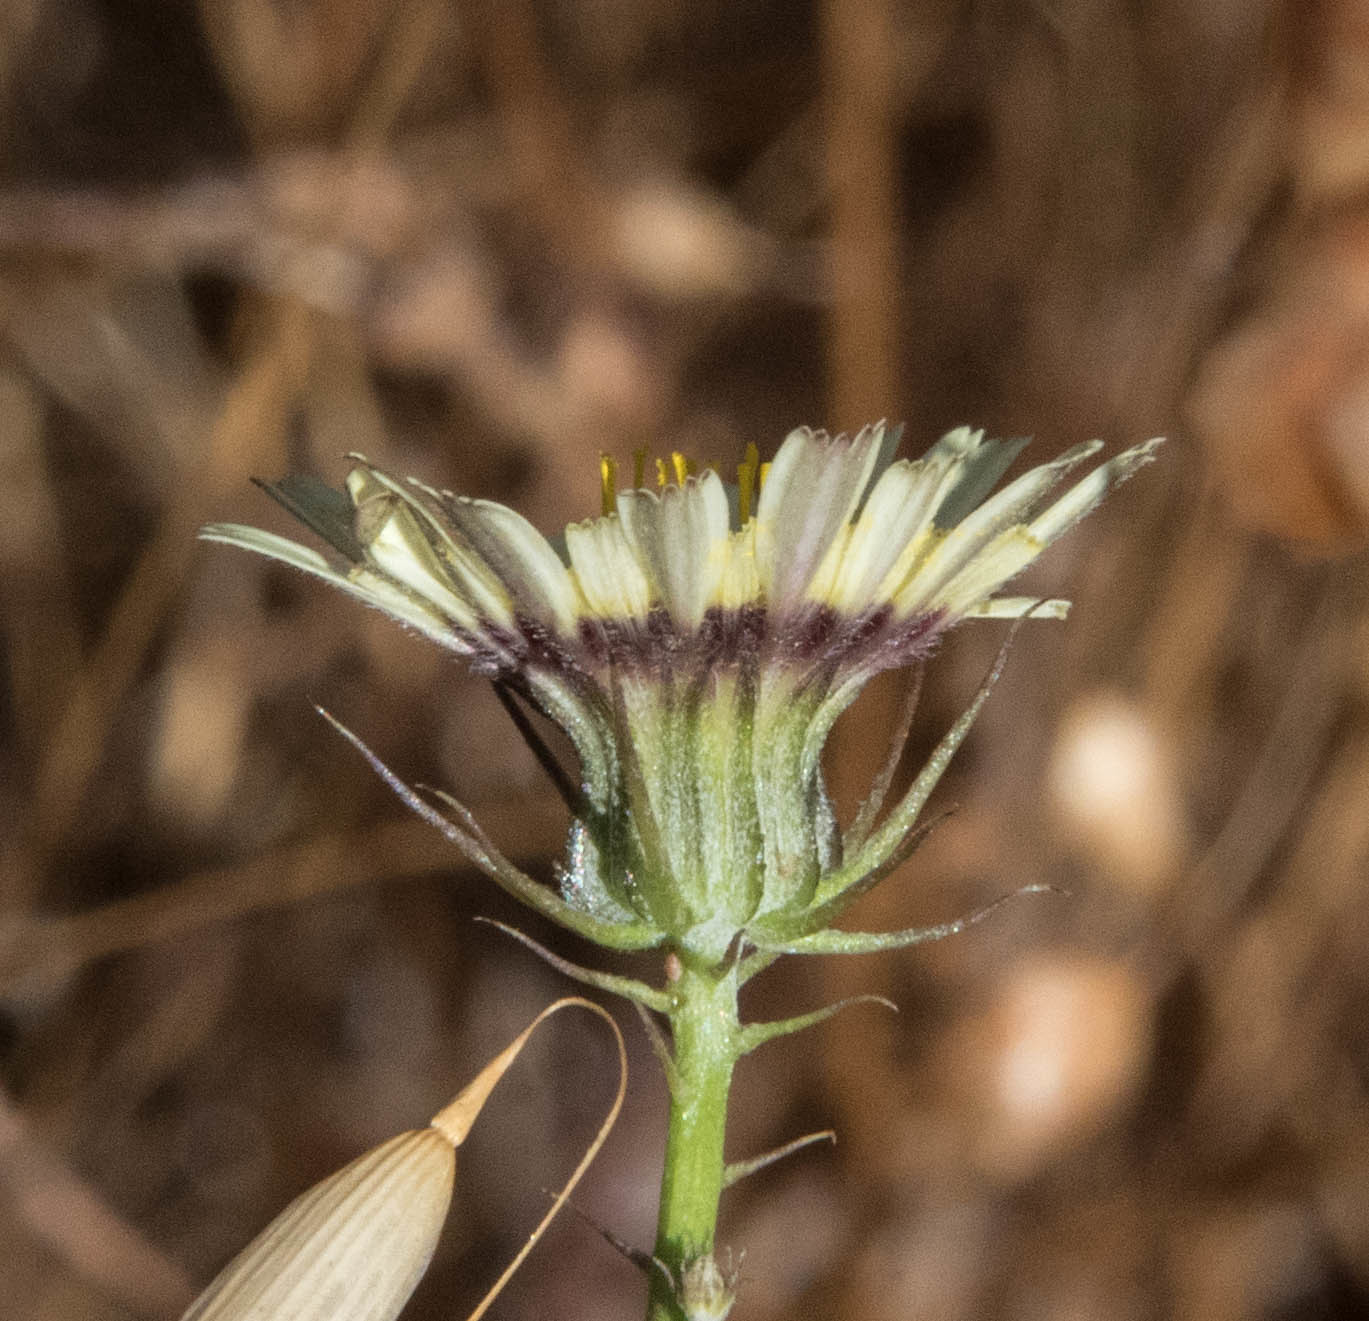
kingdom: Plantae
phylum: Tracheophyta
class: Magnoliopsida
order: Asterales
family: Asteraceae
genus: Tolpis
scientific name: Tolpis barbata
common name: Yellow hawkweed
